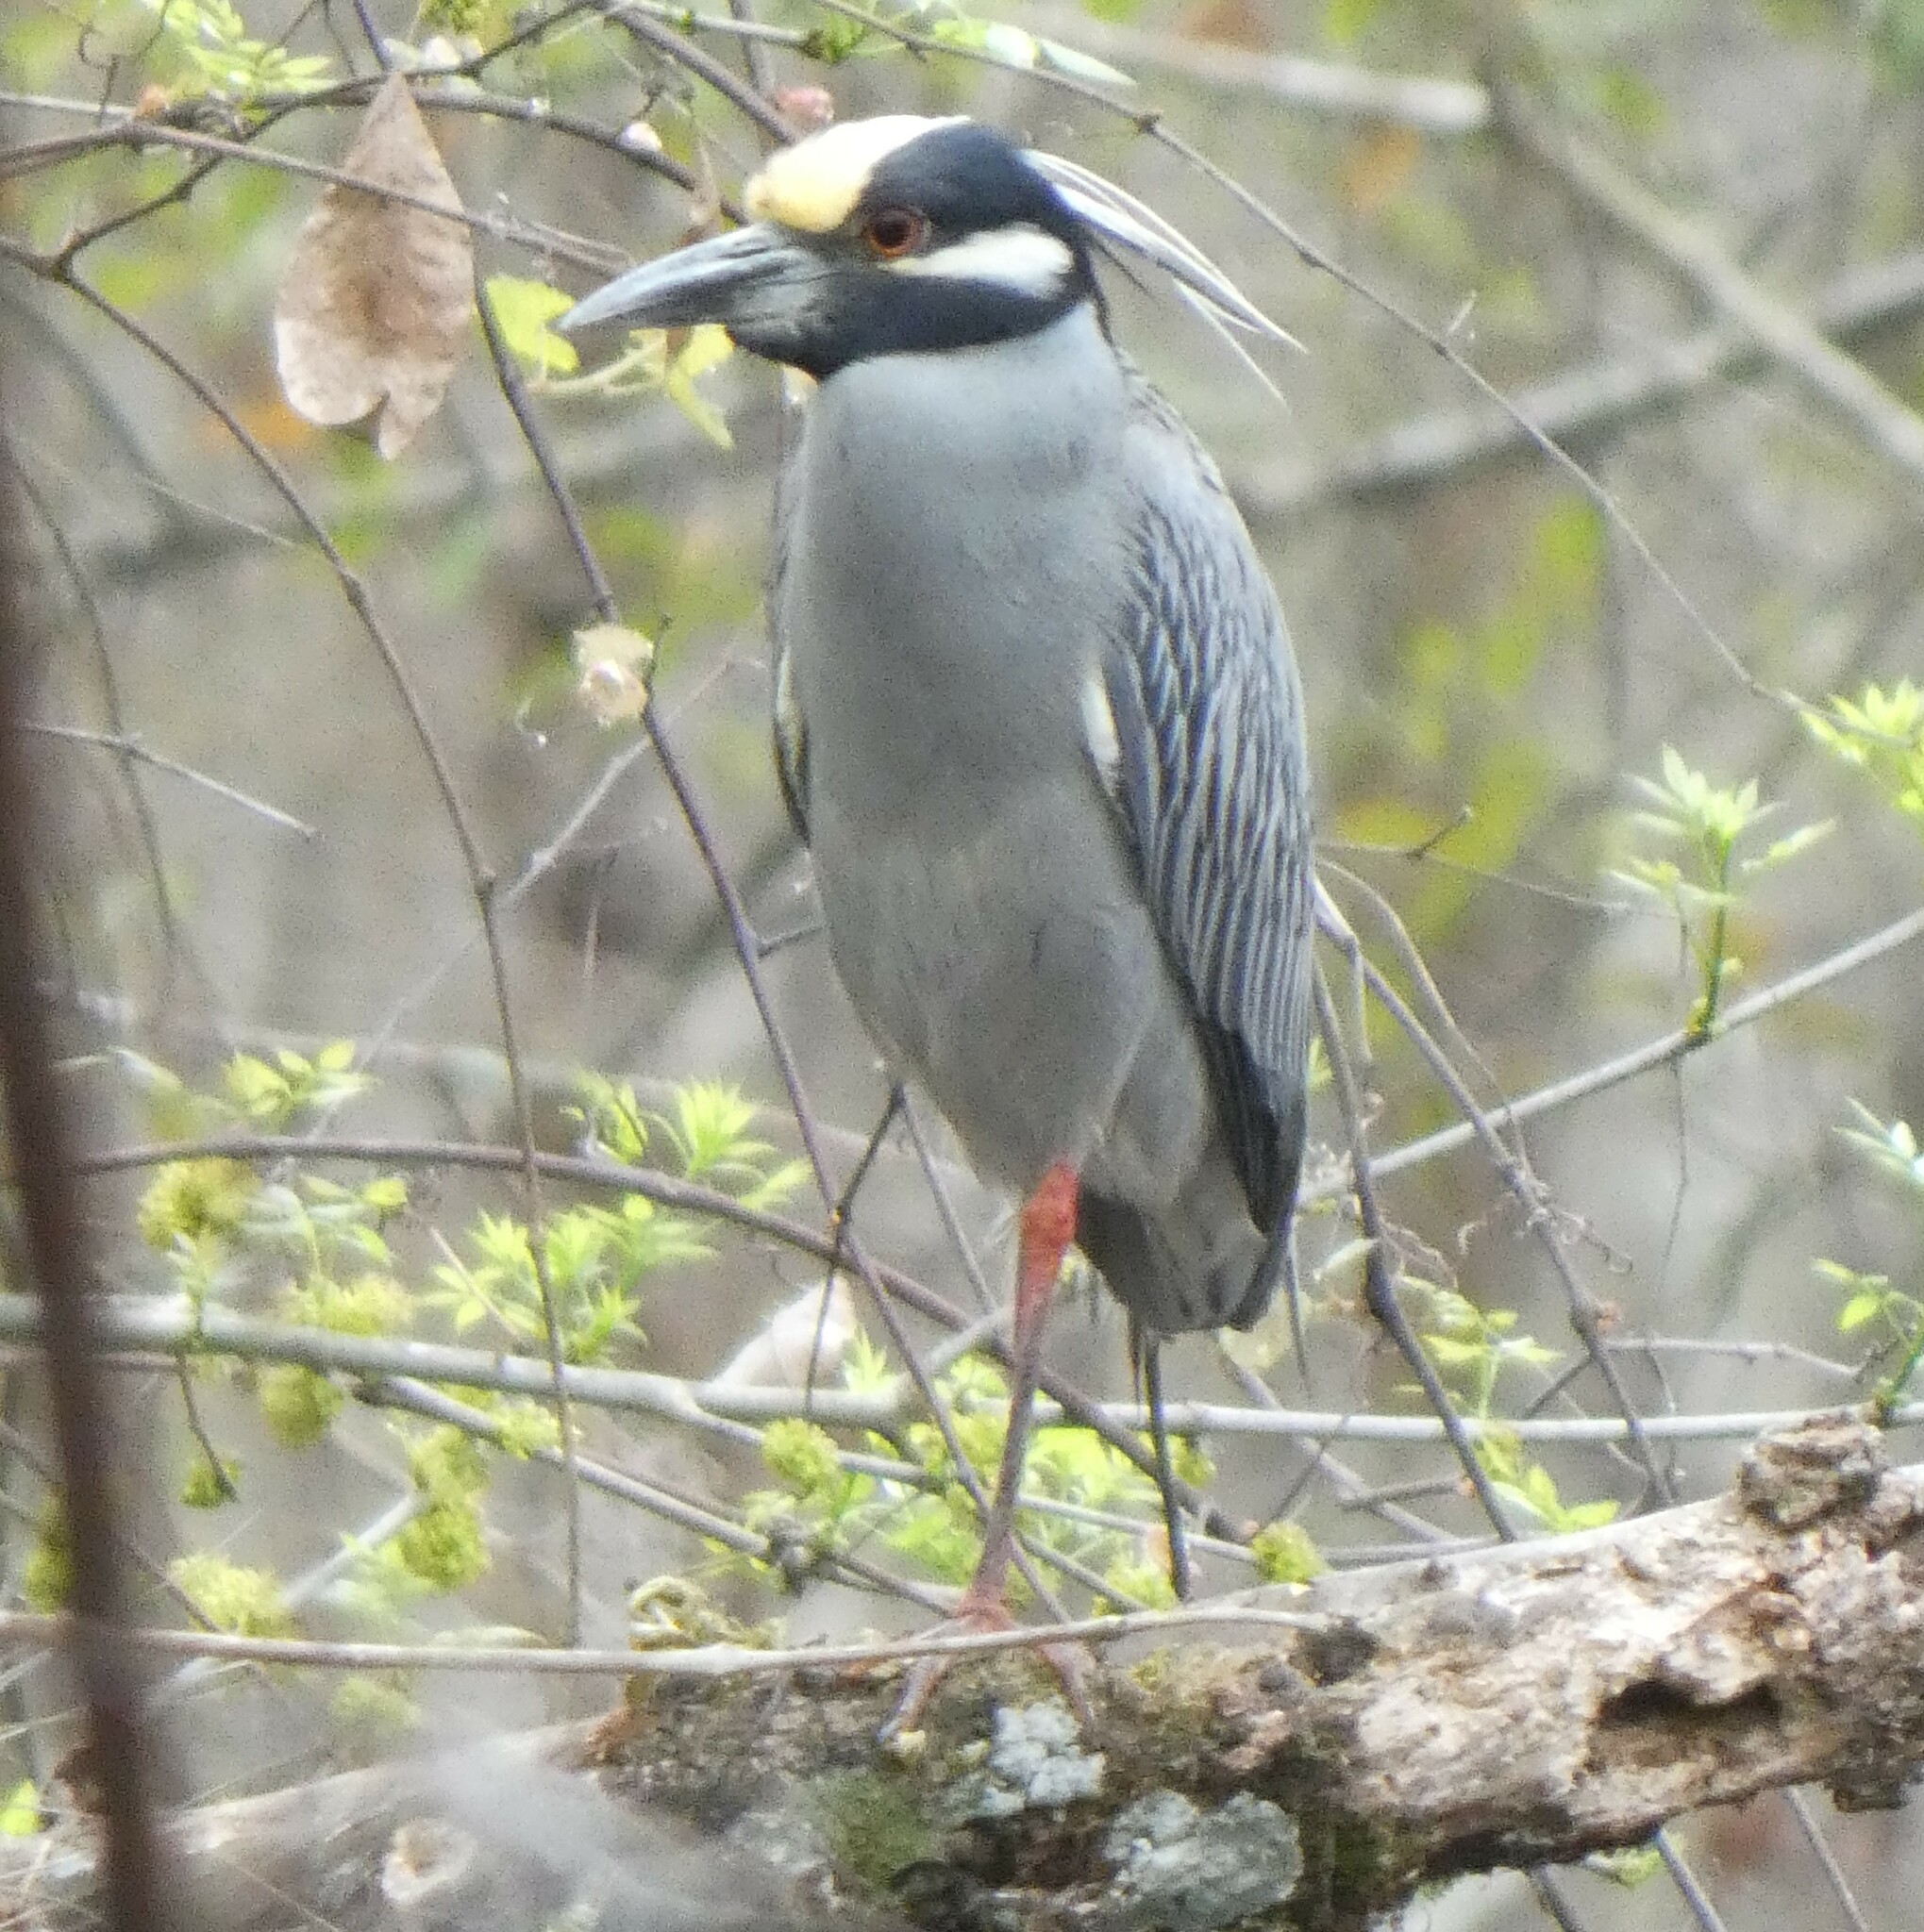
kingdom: Animalia
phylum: Chordata
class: Aves
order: Pelecaniformes
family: Ardeidae
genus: Nyctanassa
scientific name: Nyctanassa violacea
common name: Yellow-crowned night heron
